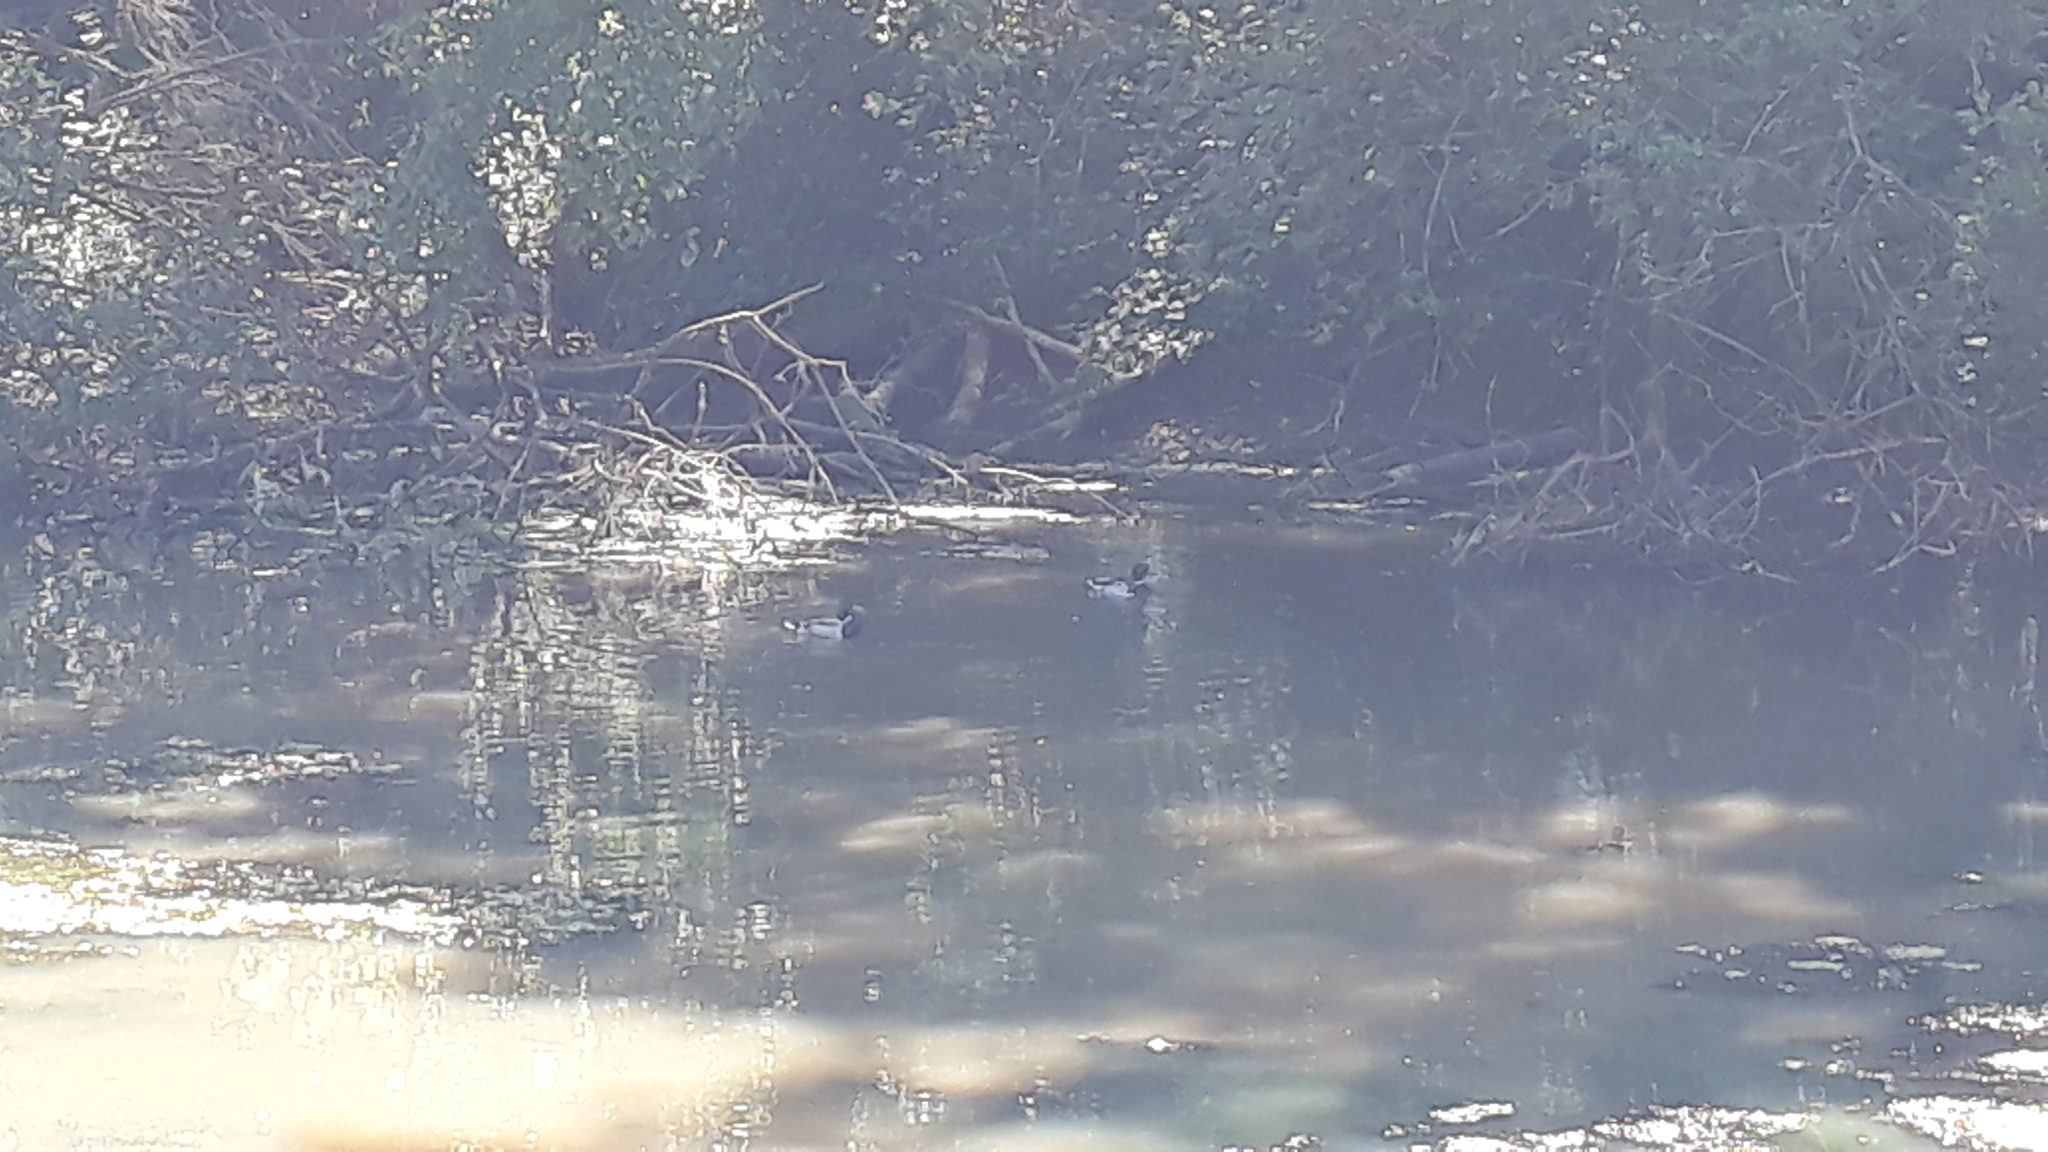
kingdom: Animalia
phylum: Chordata
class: Aves
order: Anseriformes
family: Anatidae
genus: Anas
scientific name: Anas platyrhynchos
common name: Mallard
